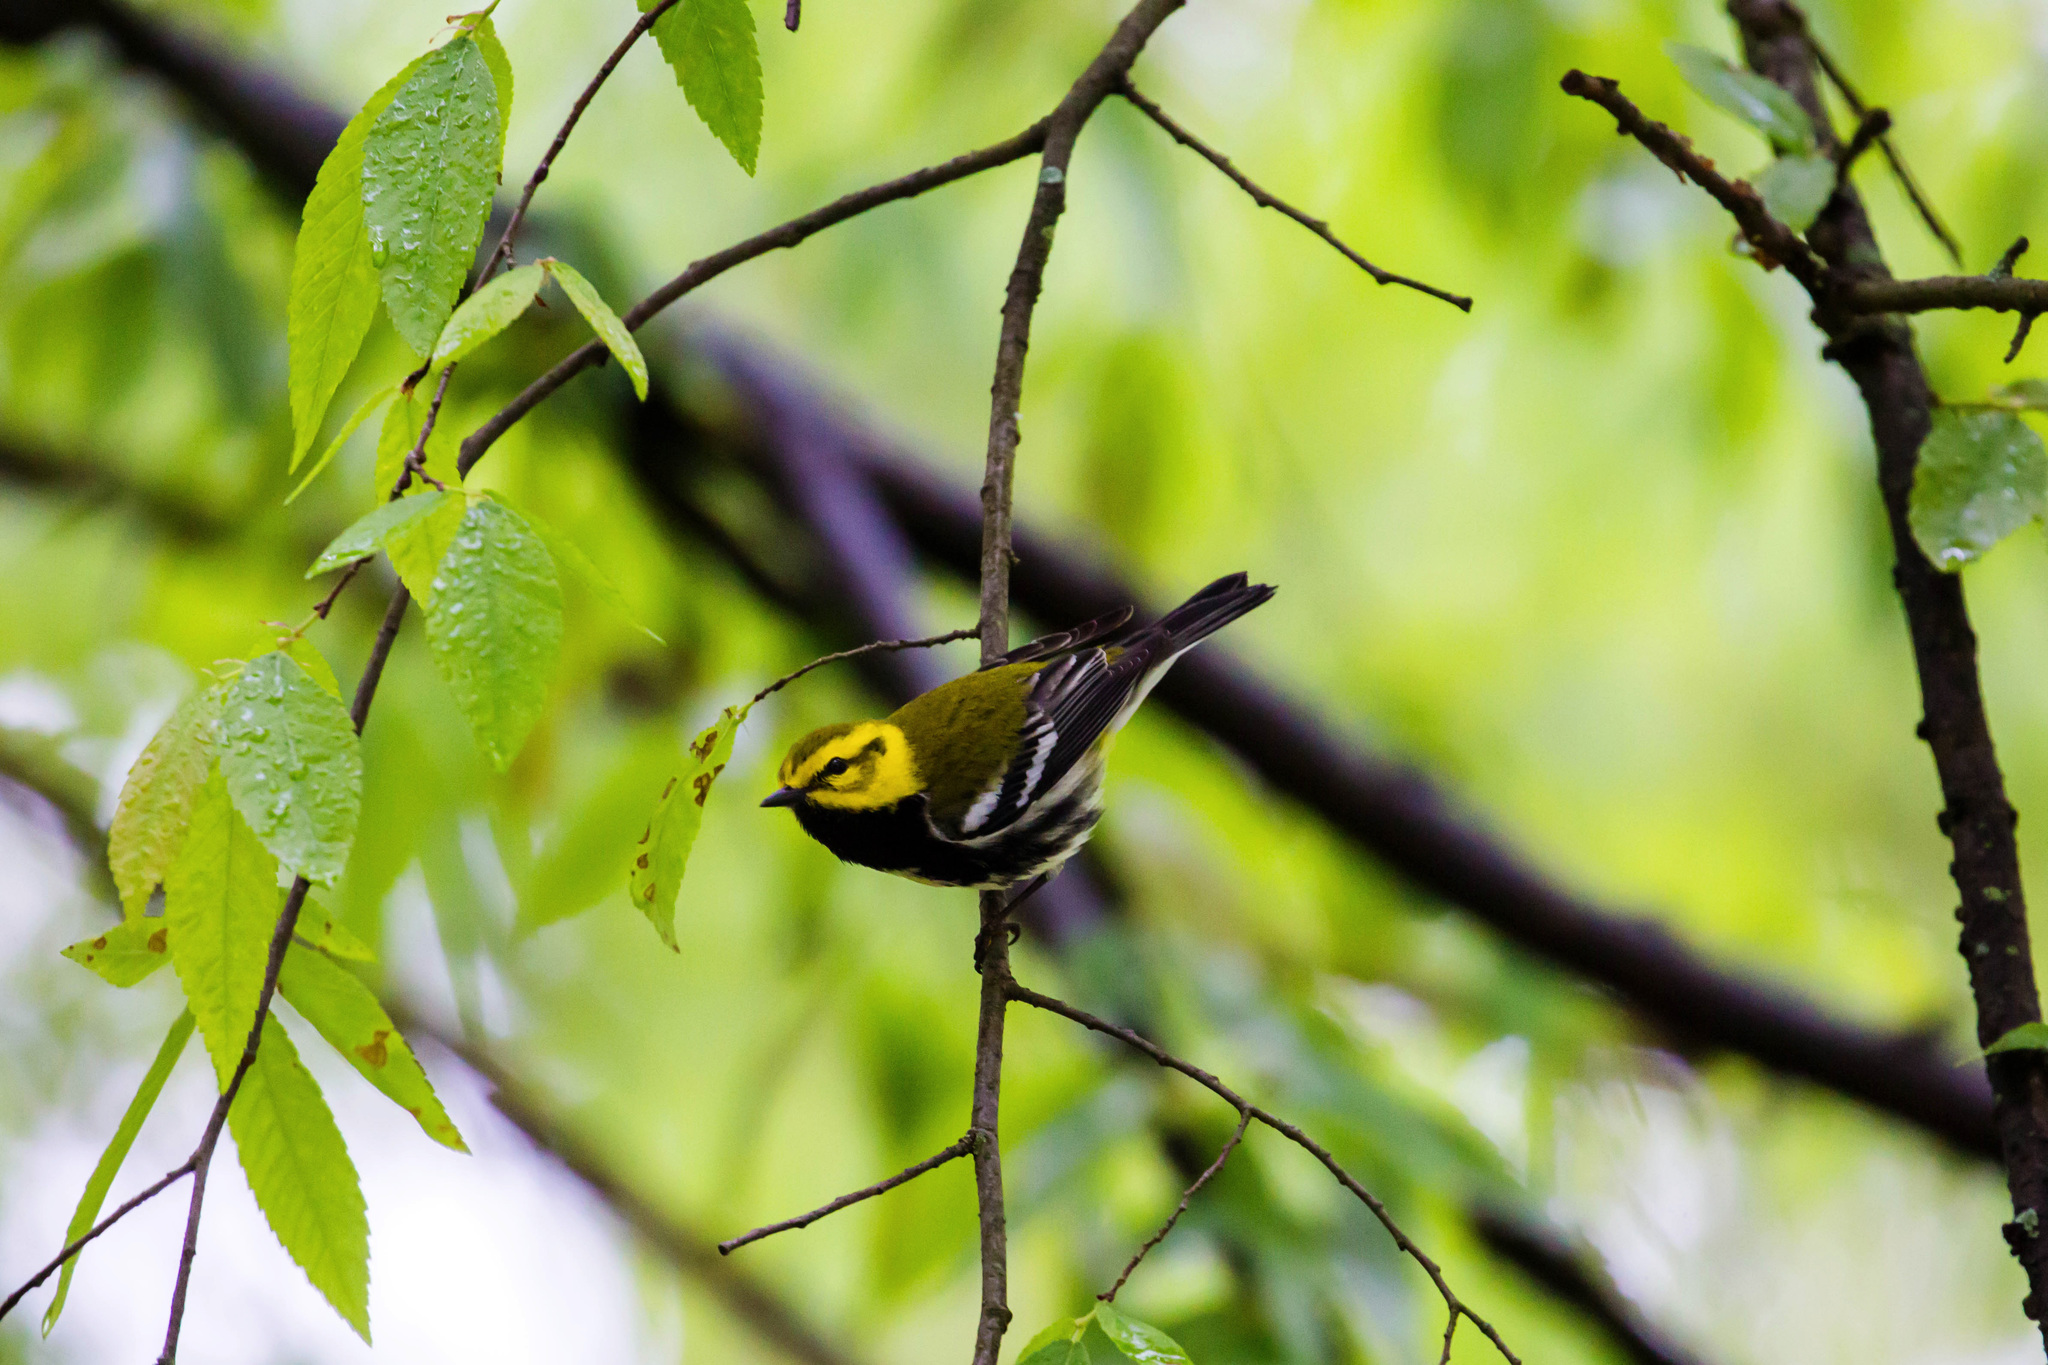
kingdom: Animalia
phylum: Chordata
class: Aves
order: Passeriformes
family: Parulidae
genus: Setophaga
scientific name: Setophaga virens
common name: Black-throated green warbler
